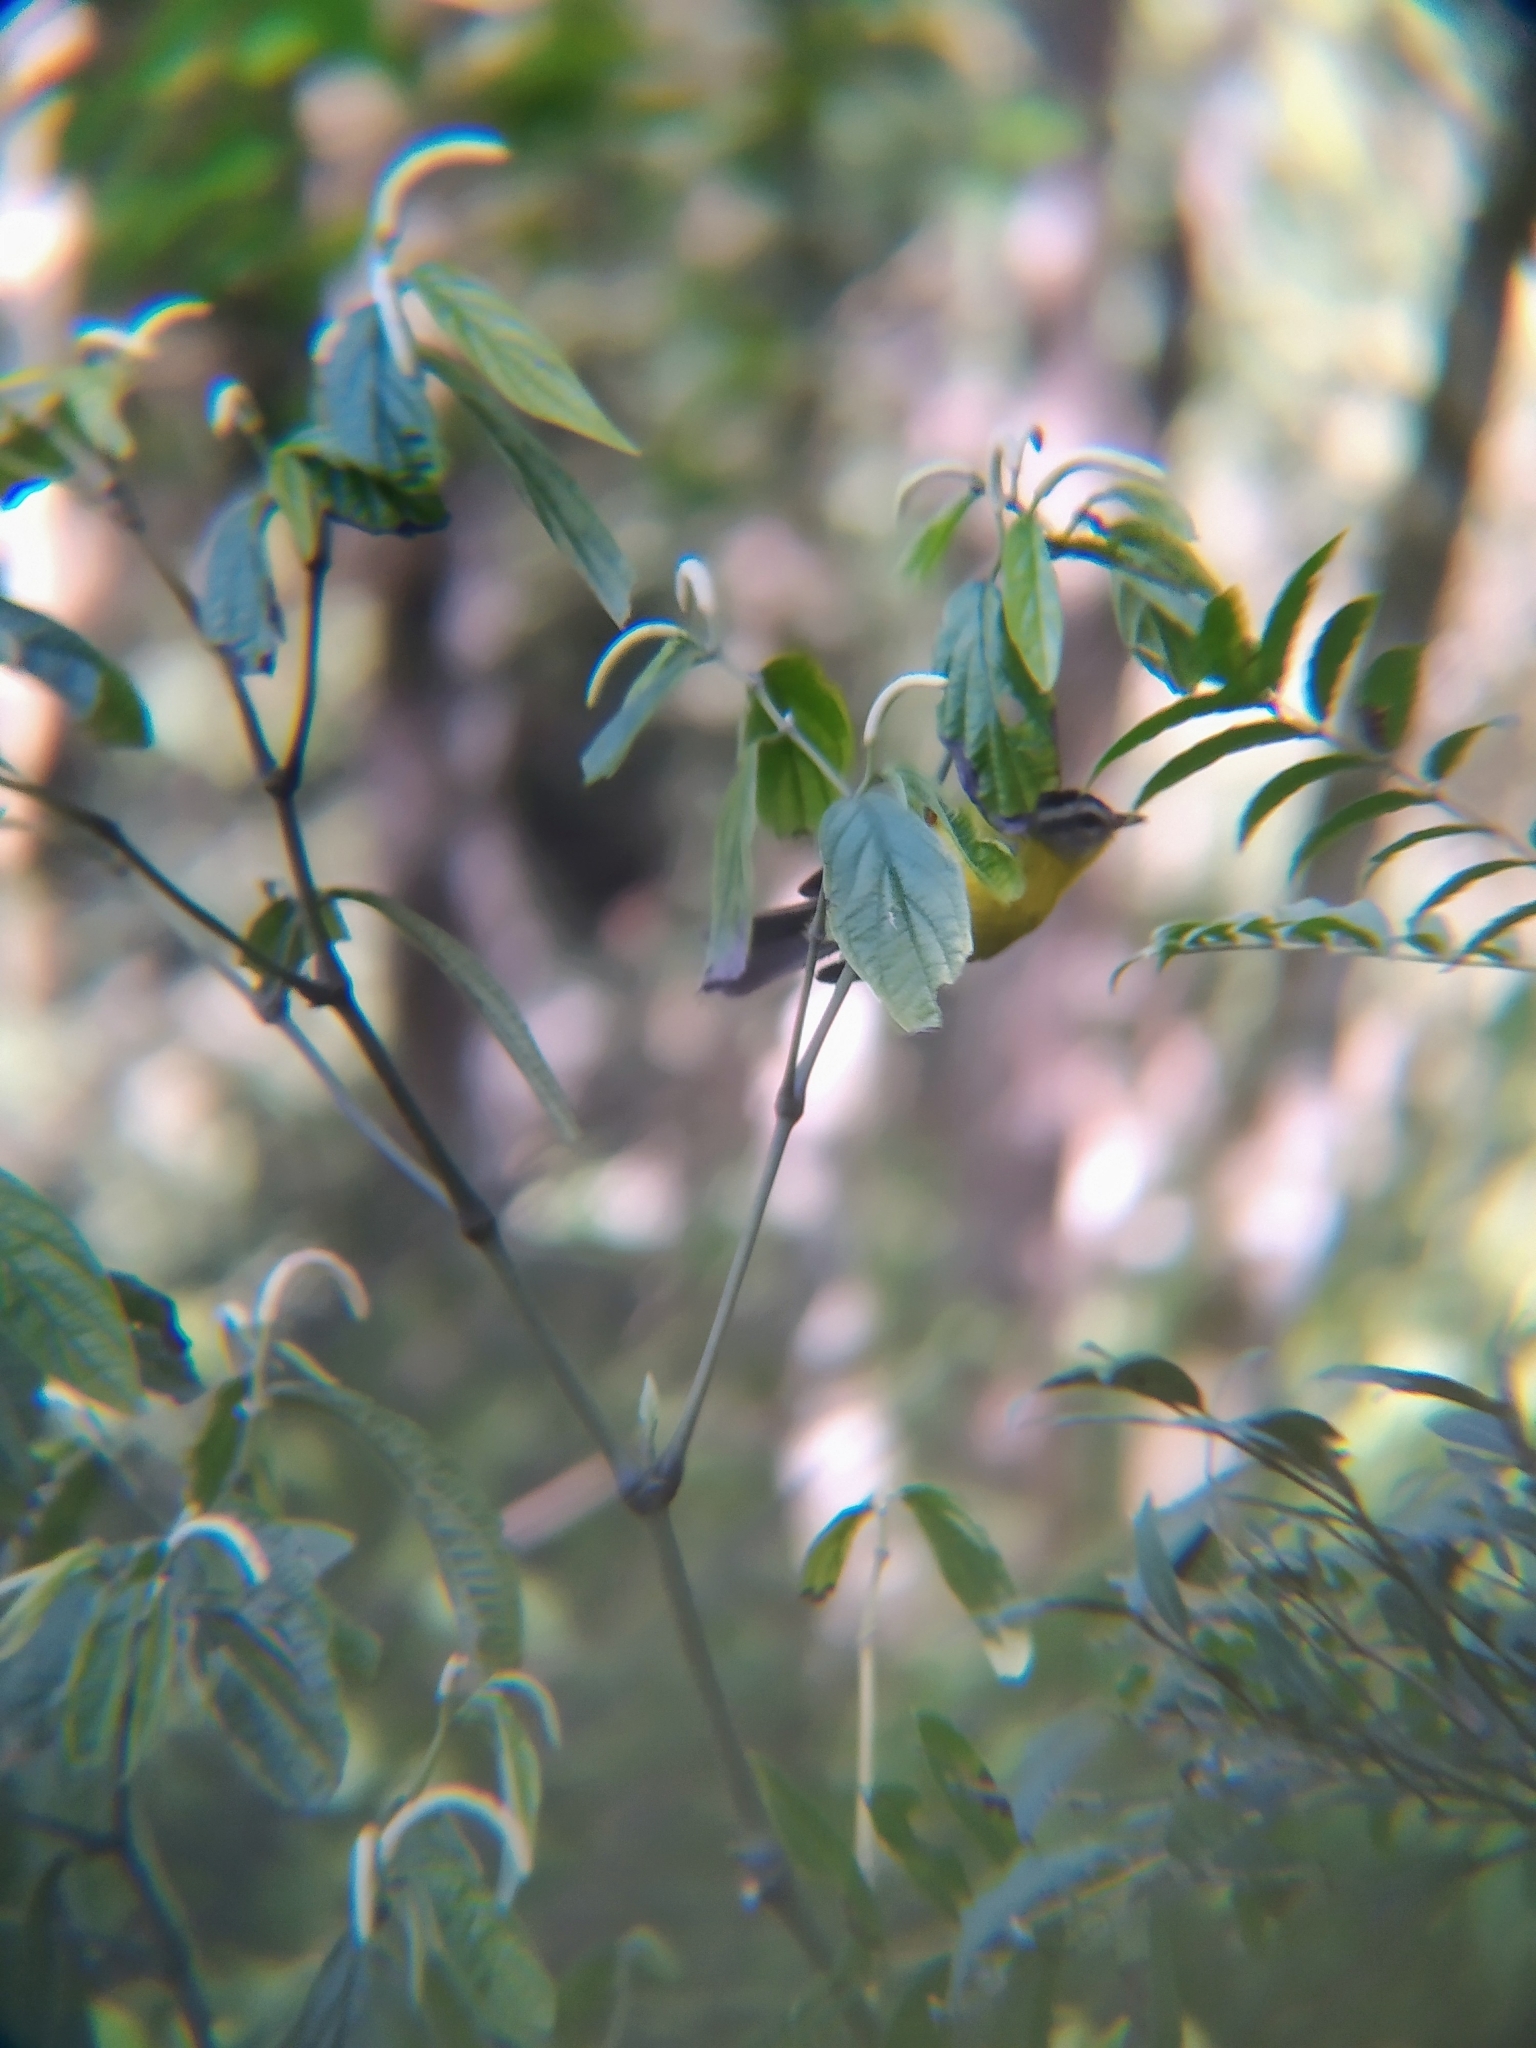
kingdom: Animalia
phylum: Chordata
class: Aves
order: Passeriformes
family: Parulidae
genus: Basileuterus
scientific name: Basileuterus culicivorus
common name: Golden-crowned warbler
